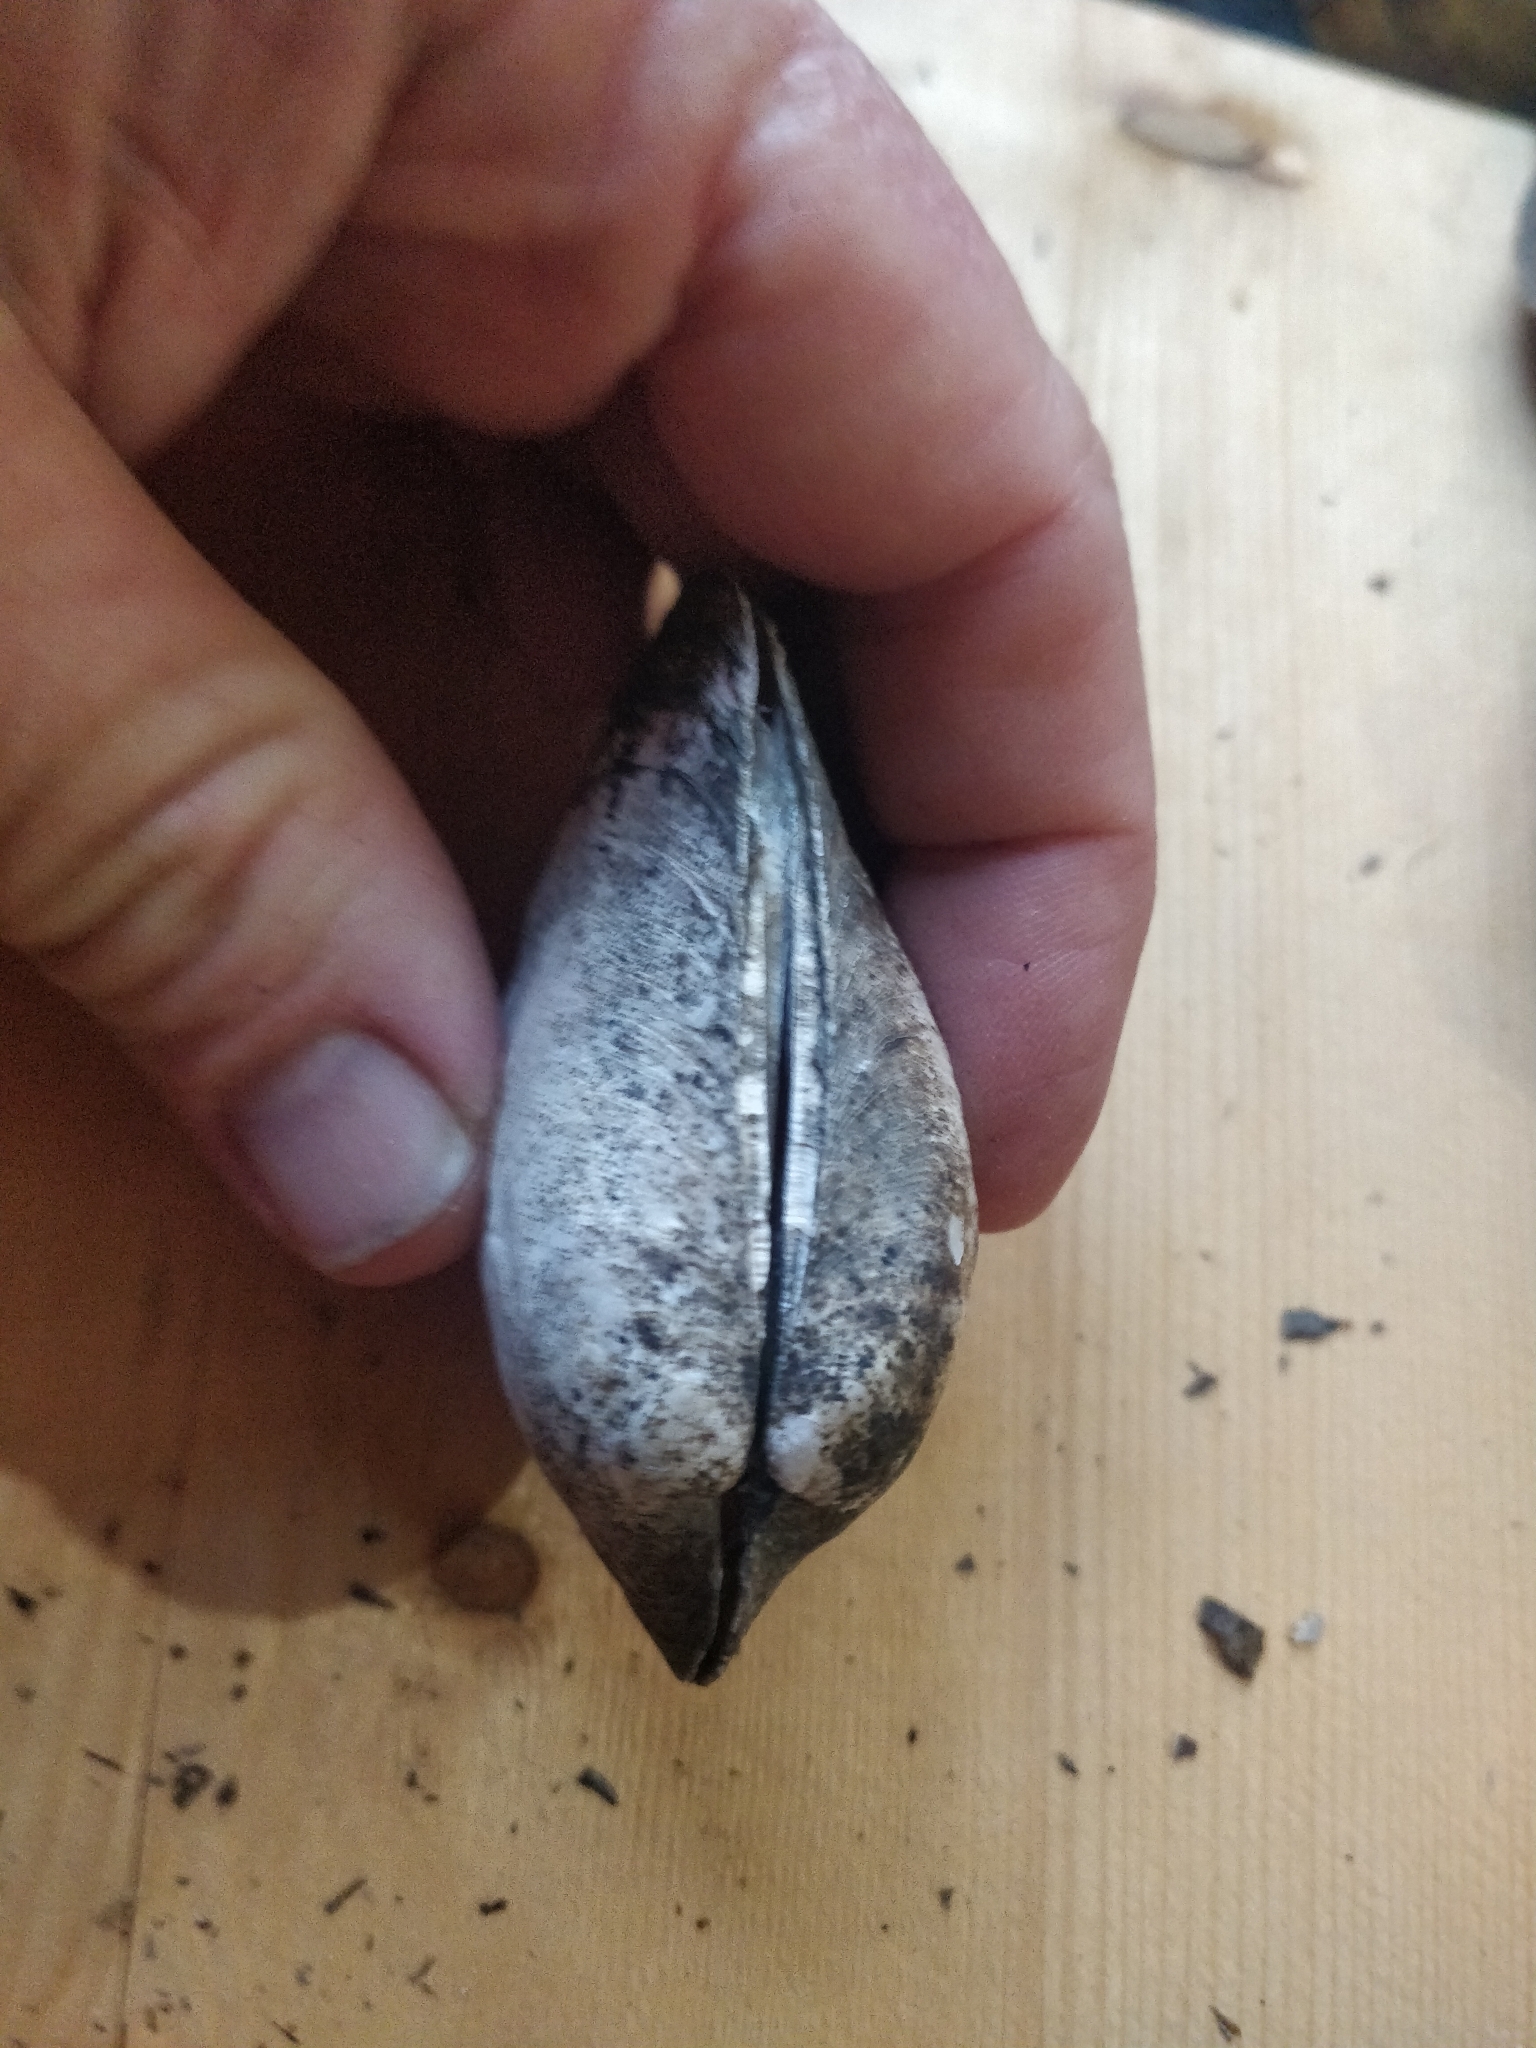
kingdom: Animalia
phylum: Mollusca
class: Bivalvia
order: Unionida
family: Unionidae
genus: Amblema
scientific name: Amblema plicata
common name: Threeridge
